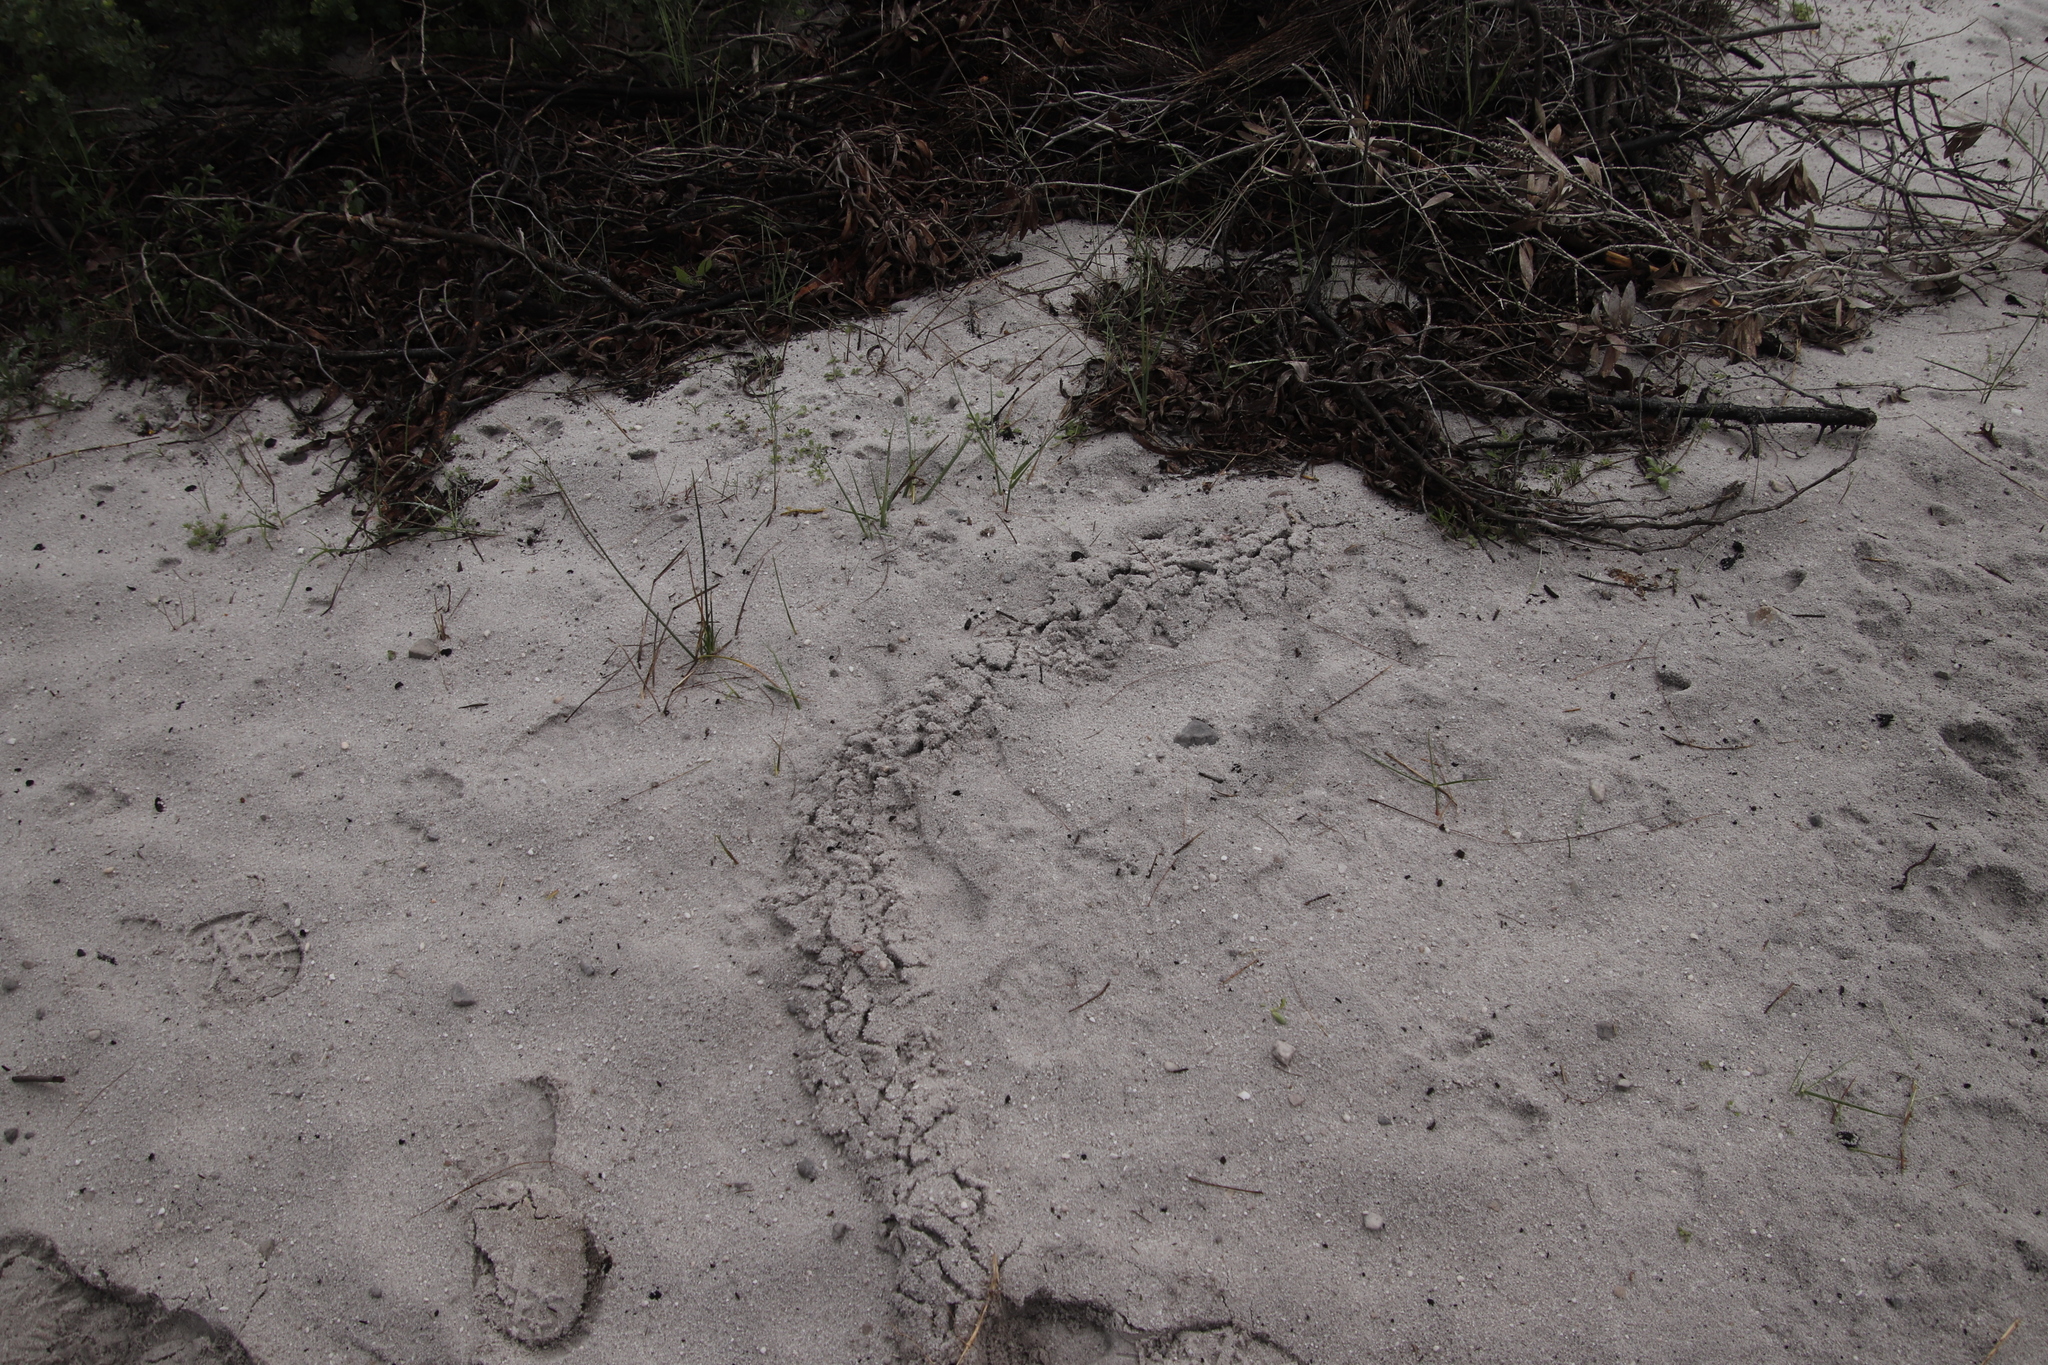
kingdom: Animalia
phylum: Chordata
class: Mammalia
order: Afrosoricida
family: Chrysochloridae
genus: Chrysochloris
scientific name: Chrysochloris asiatica
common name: Cape golden mole
